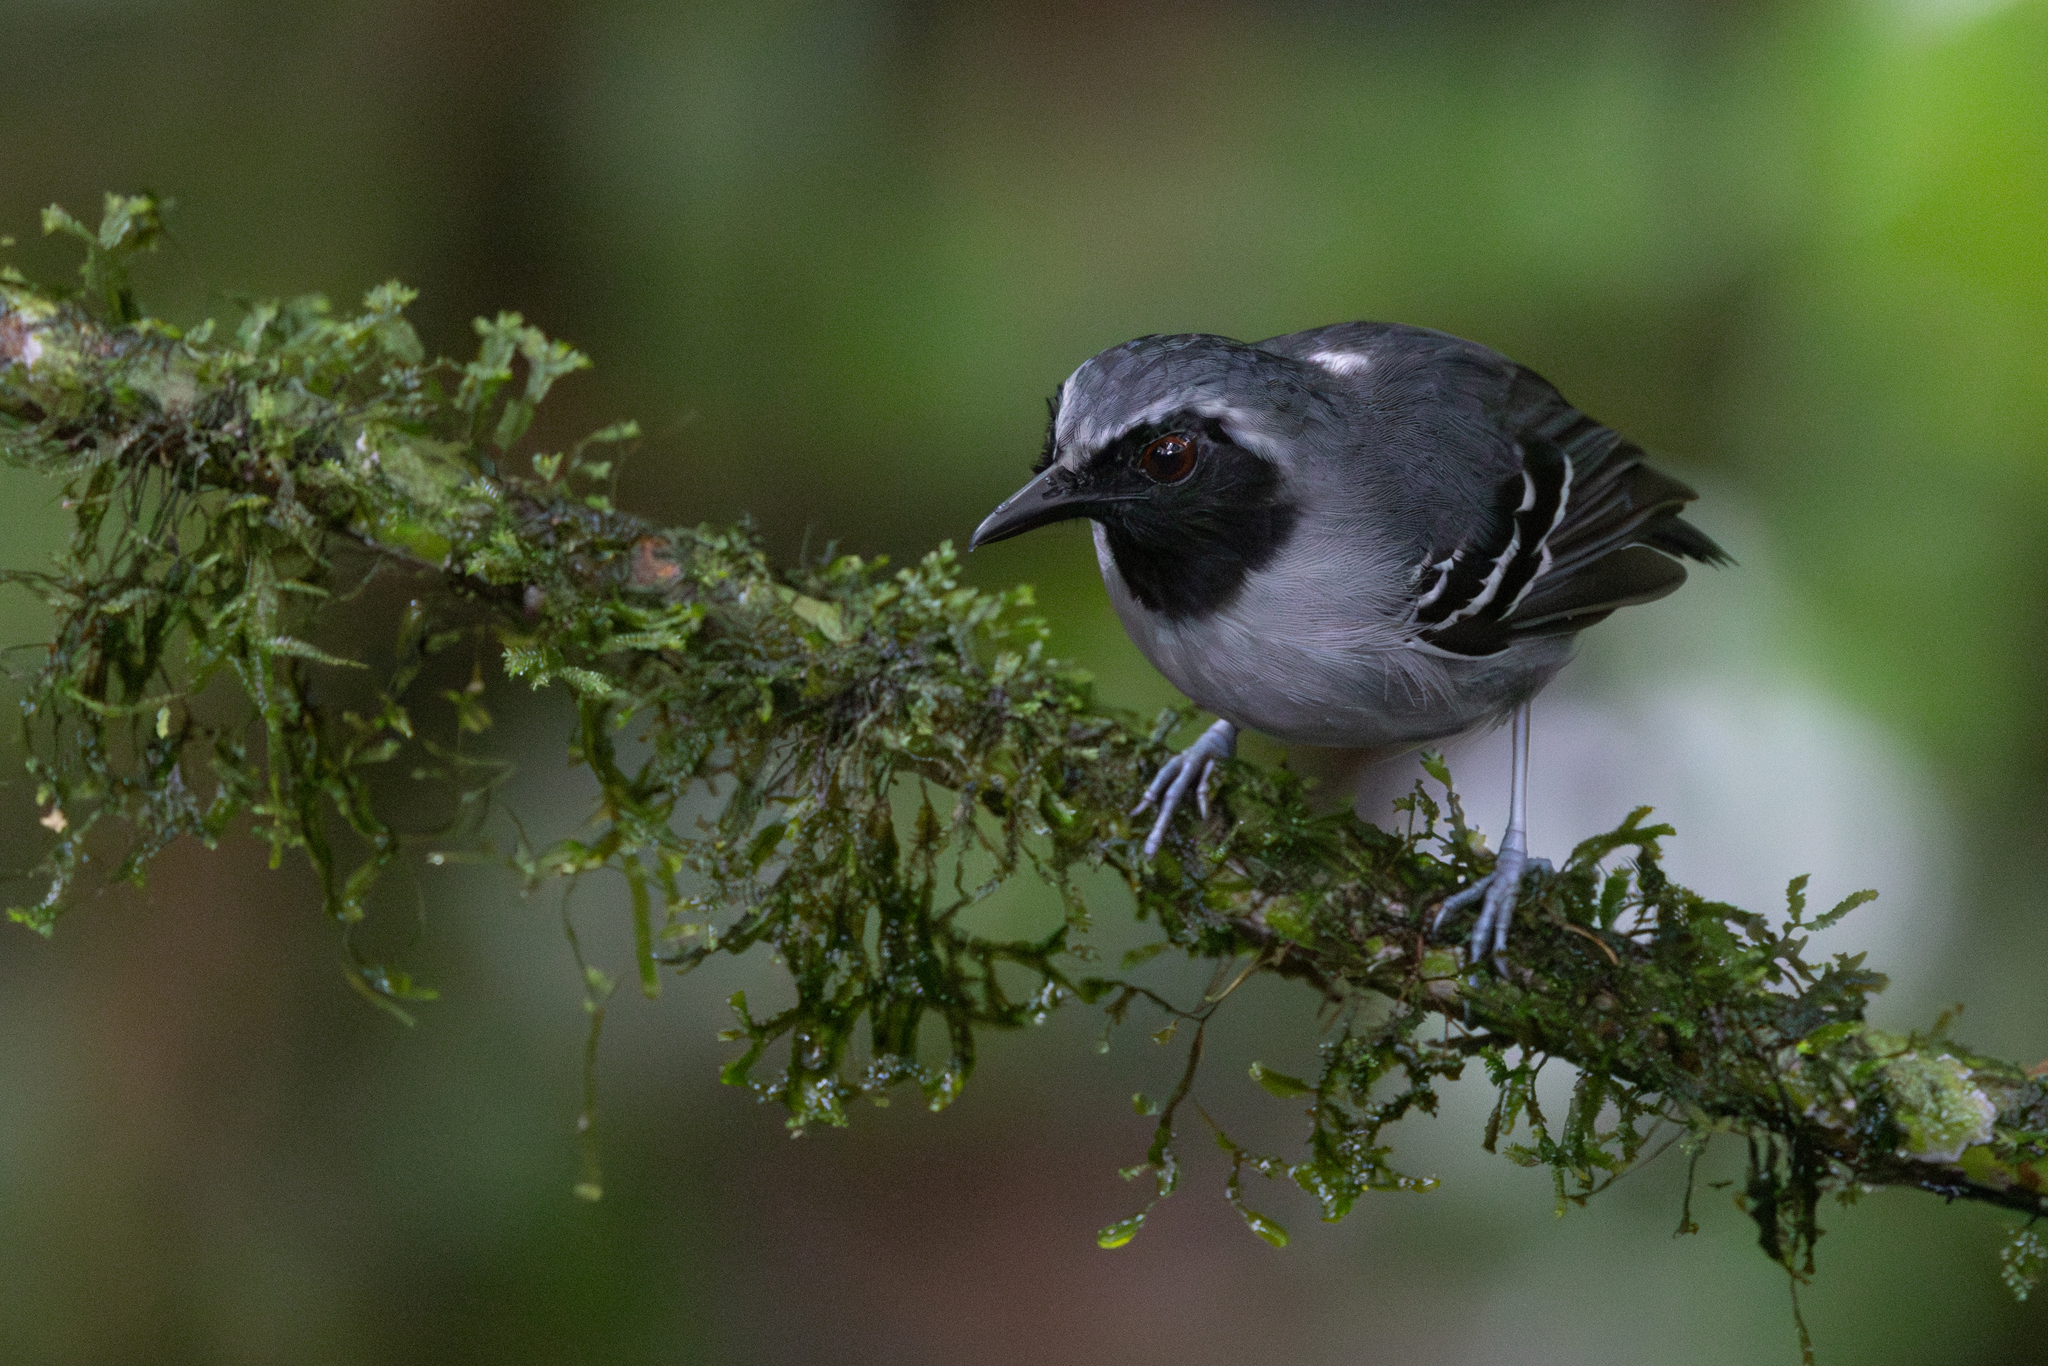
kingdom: Animalia
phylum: Chordata
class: Aves
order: Passeriformes
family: Thamnophilidae
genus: Myrmoborus
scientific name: Myrmoborus myotherinus
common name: Black-faced antbird
